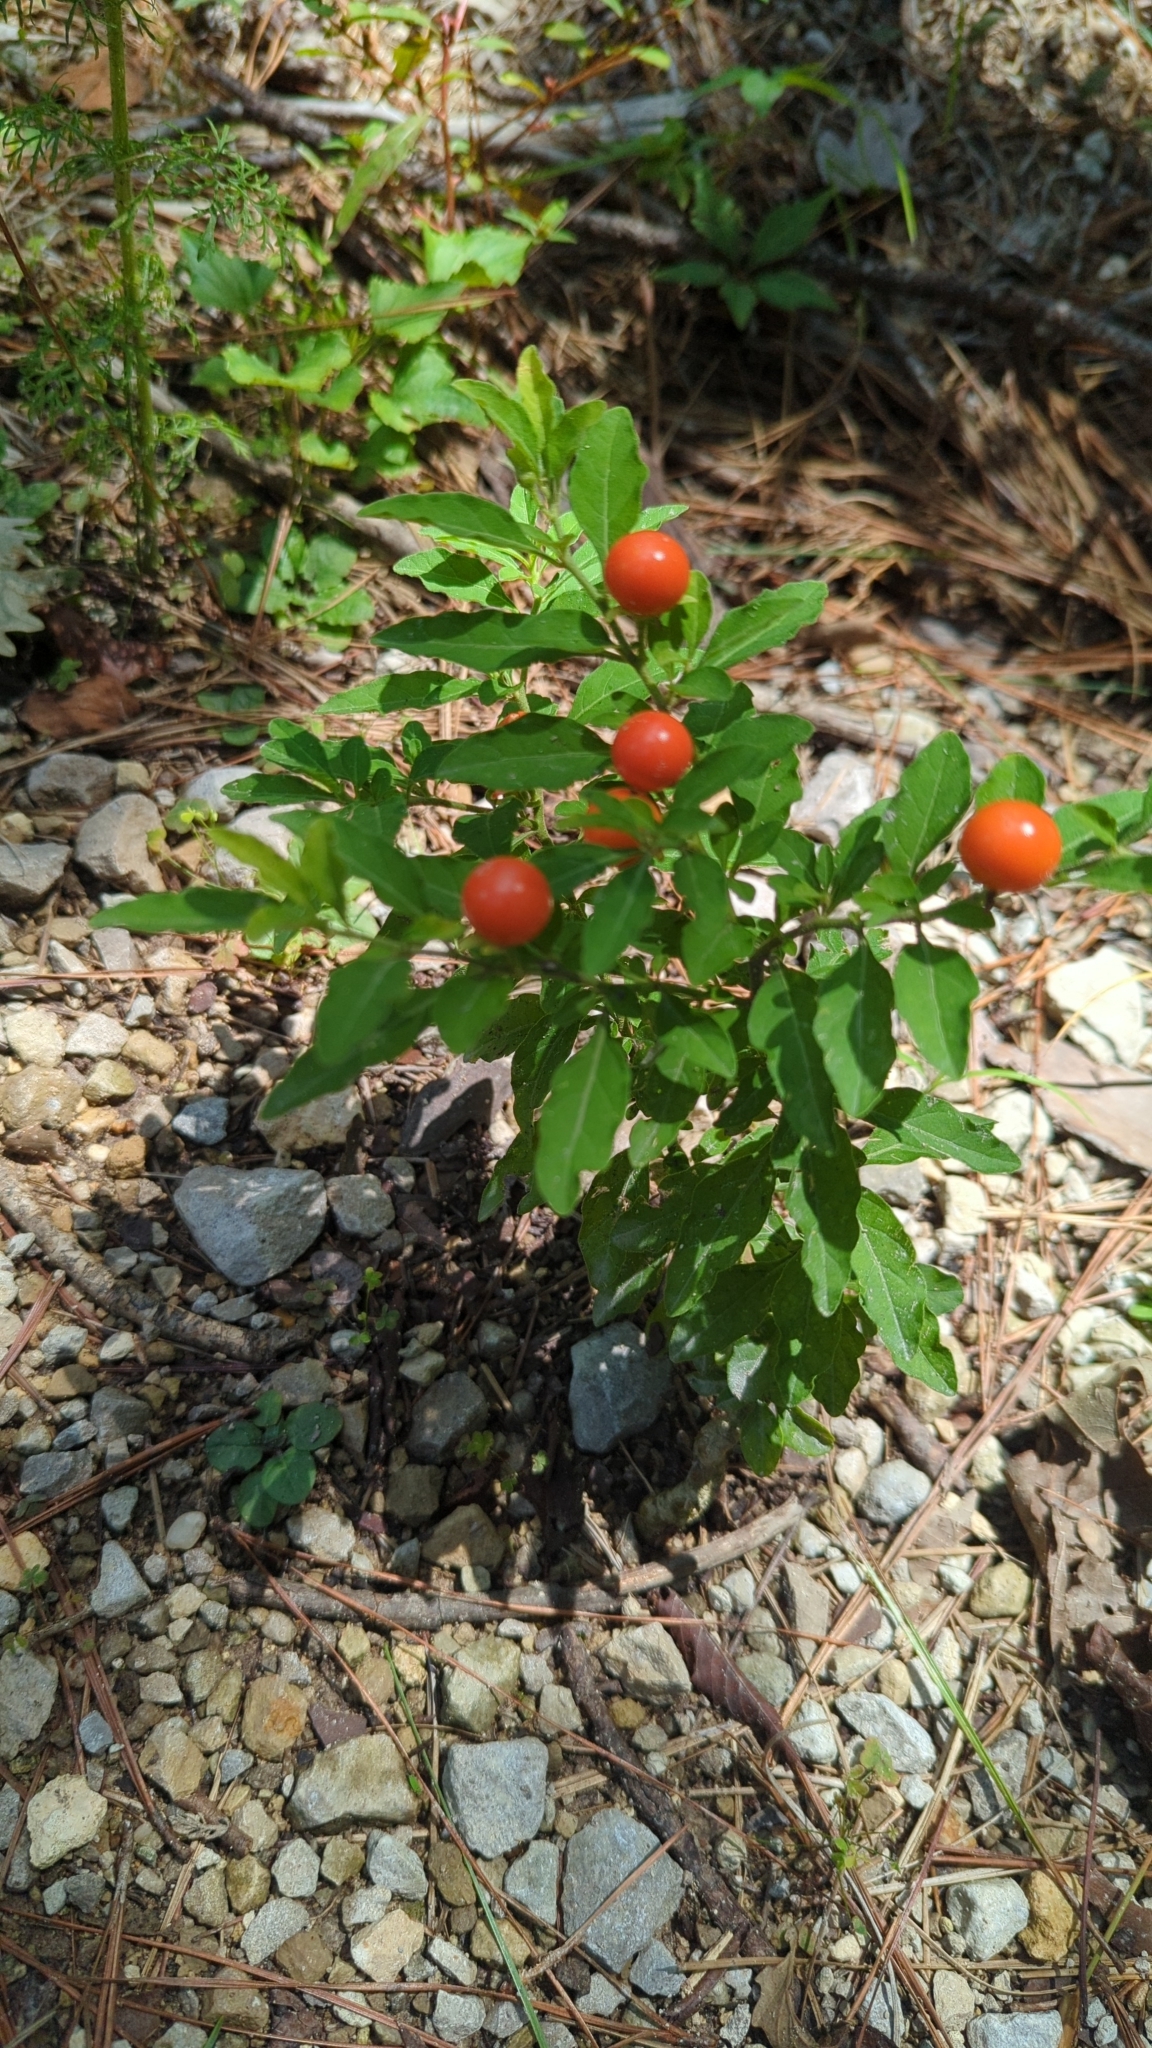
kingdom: Plantae
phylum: Tracheophyta
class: Magnoliopsida
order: Solanales
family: Solanaceae
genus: Solanum
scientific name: Solanum pseudocapsicum
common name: Jerusalem cherry
